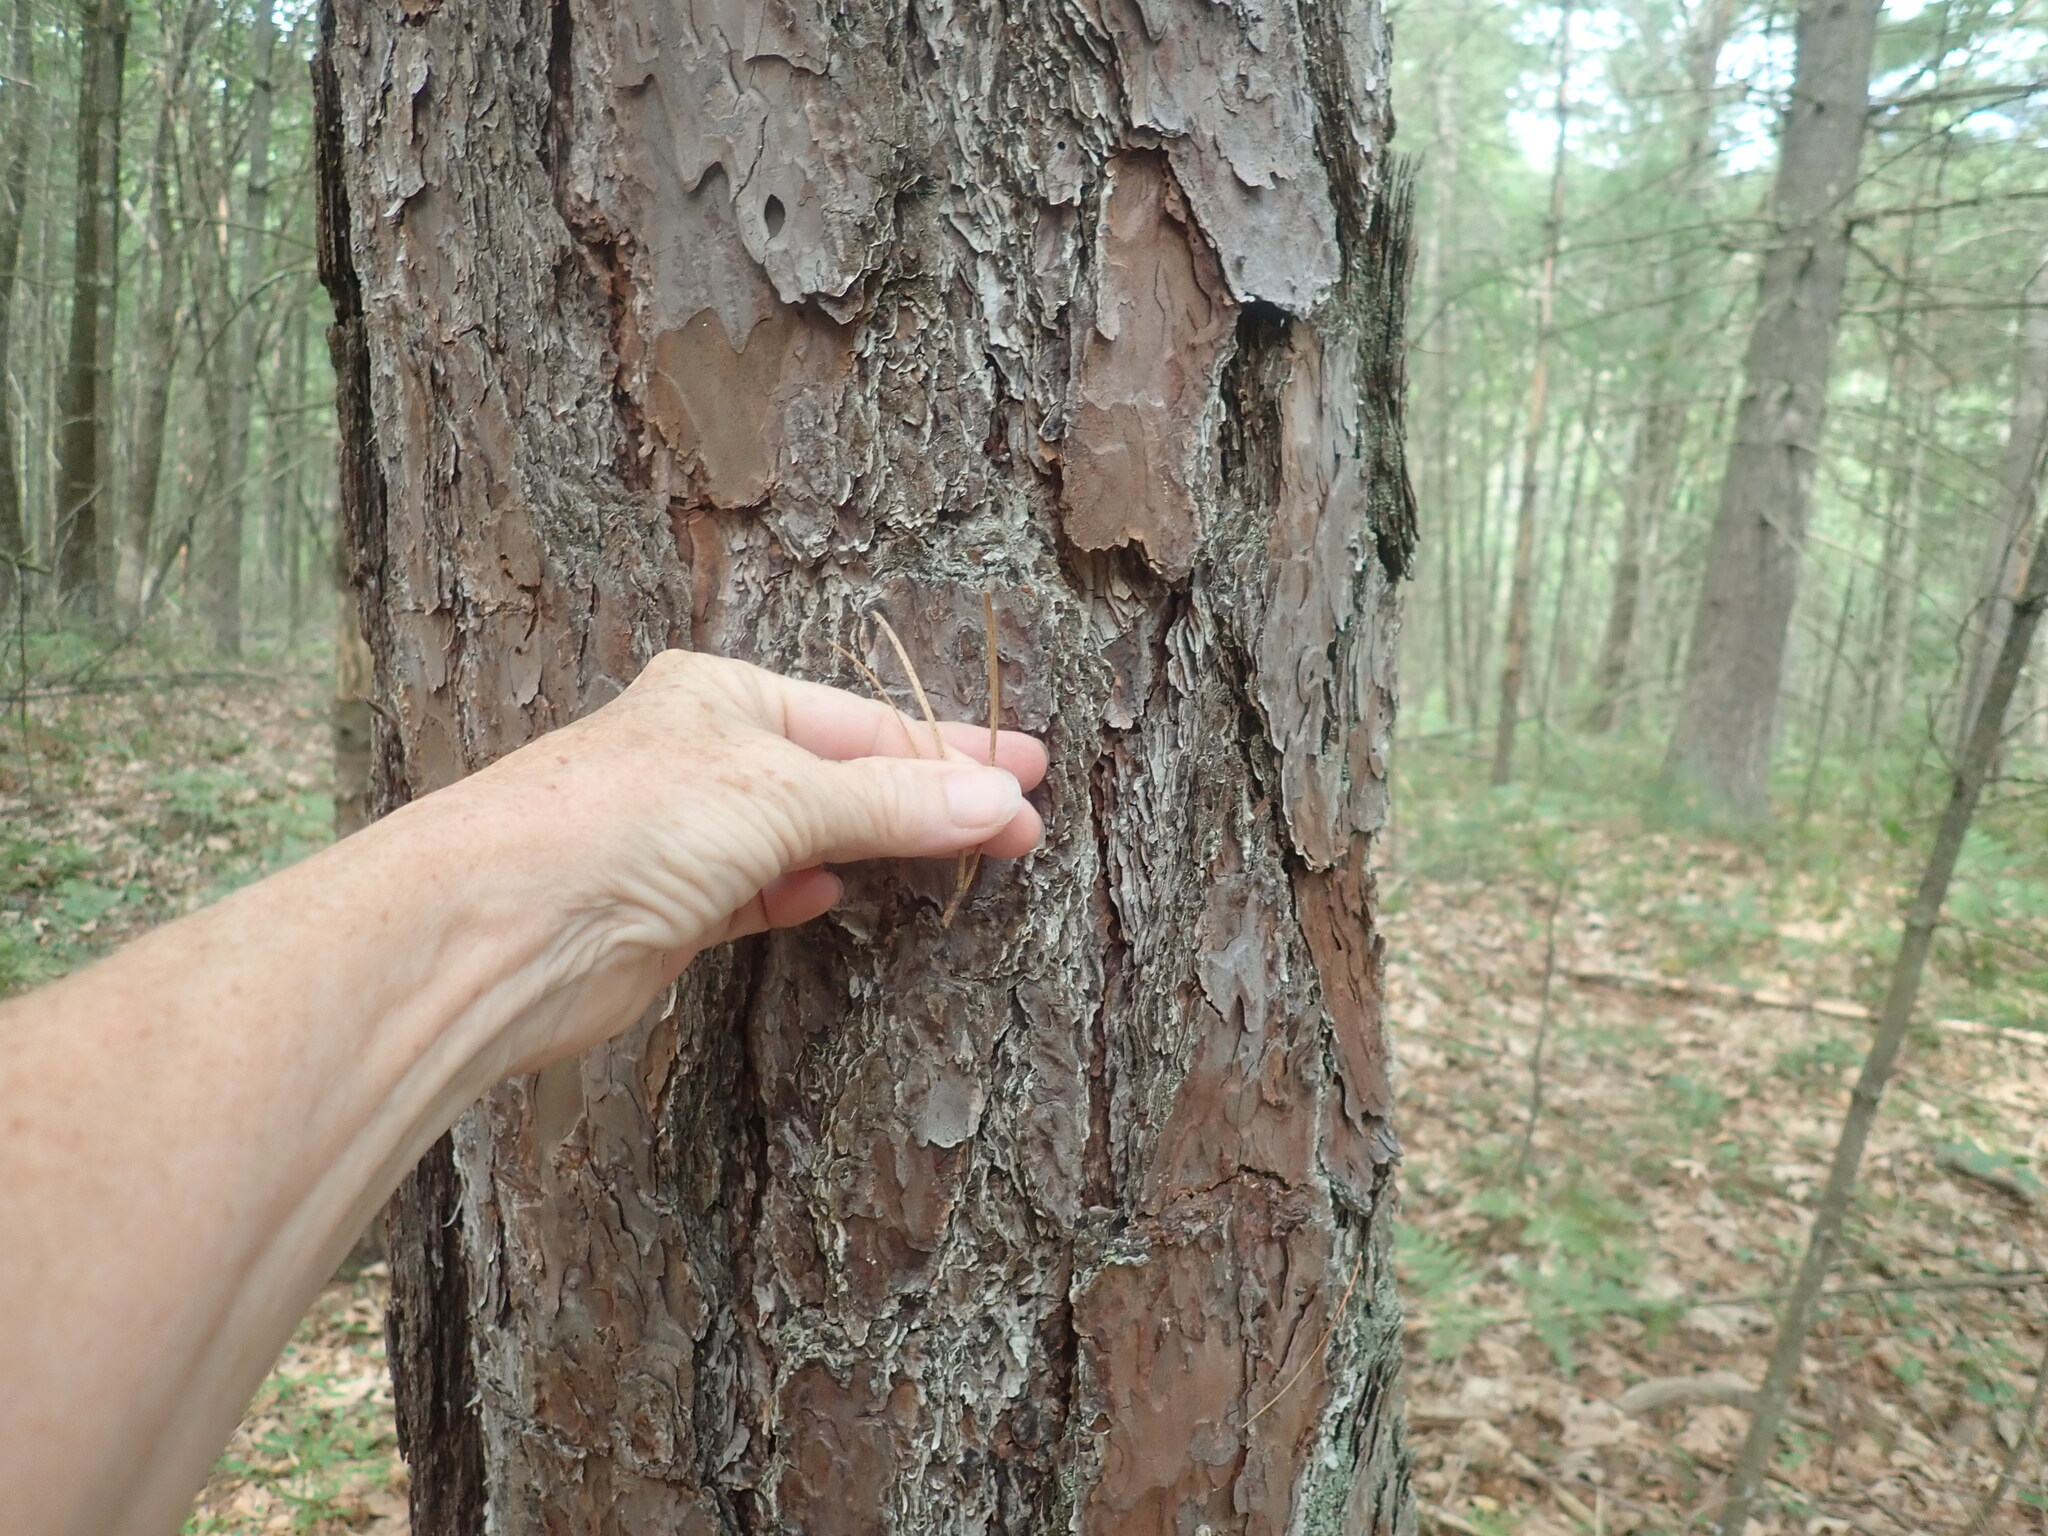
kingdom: Plantae
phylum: Tracheophyta
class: Pinopsida
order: Pinales
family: Pinaceae
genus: Pinus
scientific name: Pinus rigida
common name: Pitch pine
